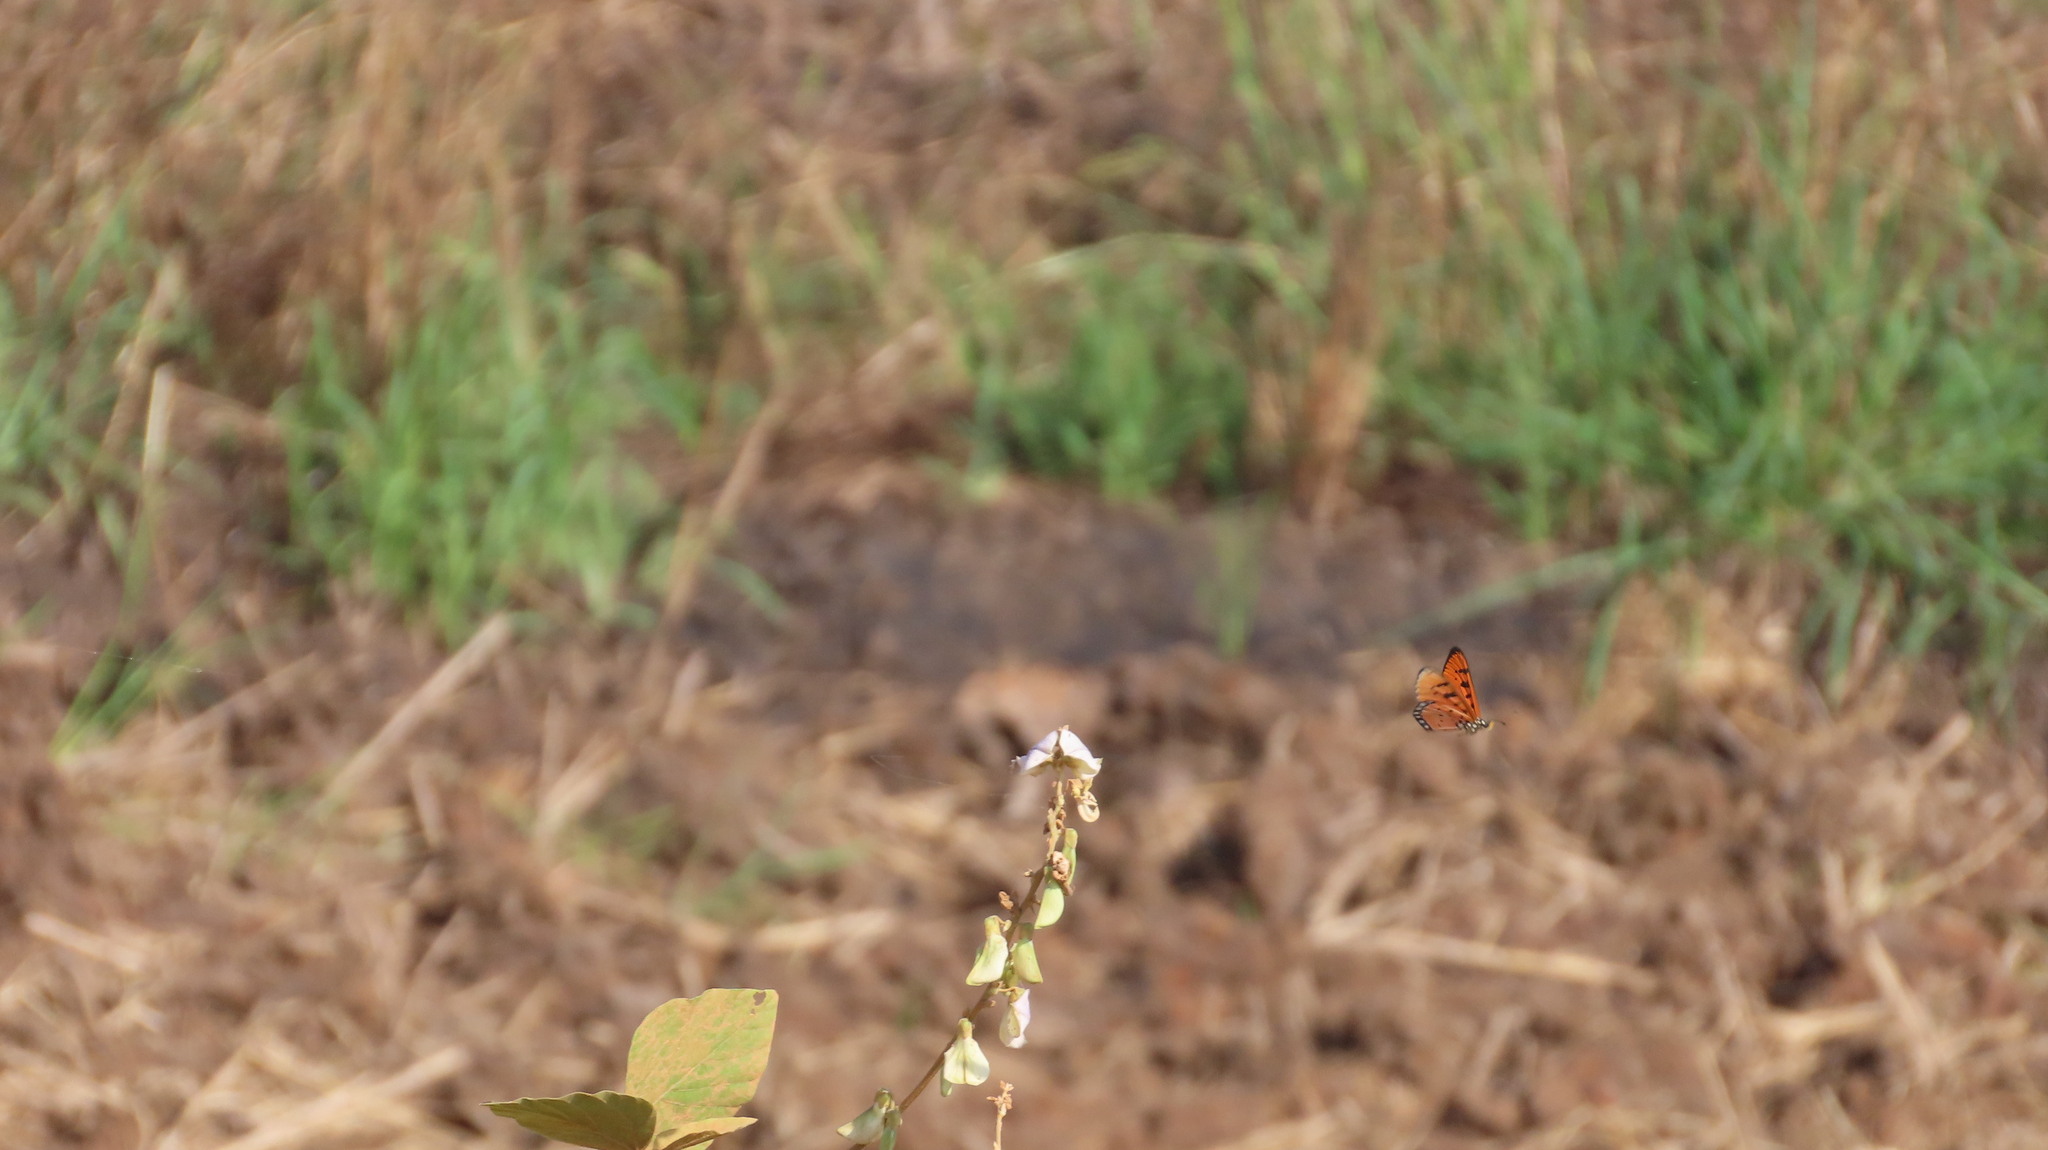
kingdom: Animalia
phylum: Arthropoda
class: Insecta
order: Lepidoptera
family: Nymphalidae
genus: Acraea
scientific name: Acraea terpsicore
